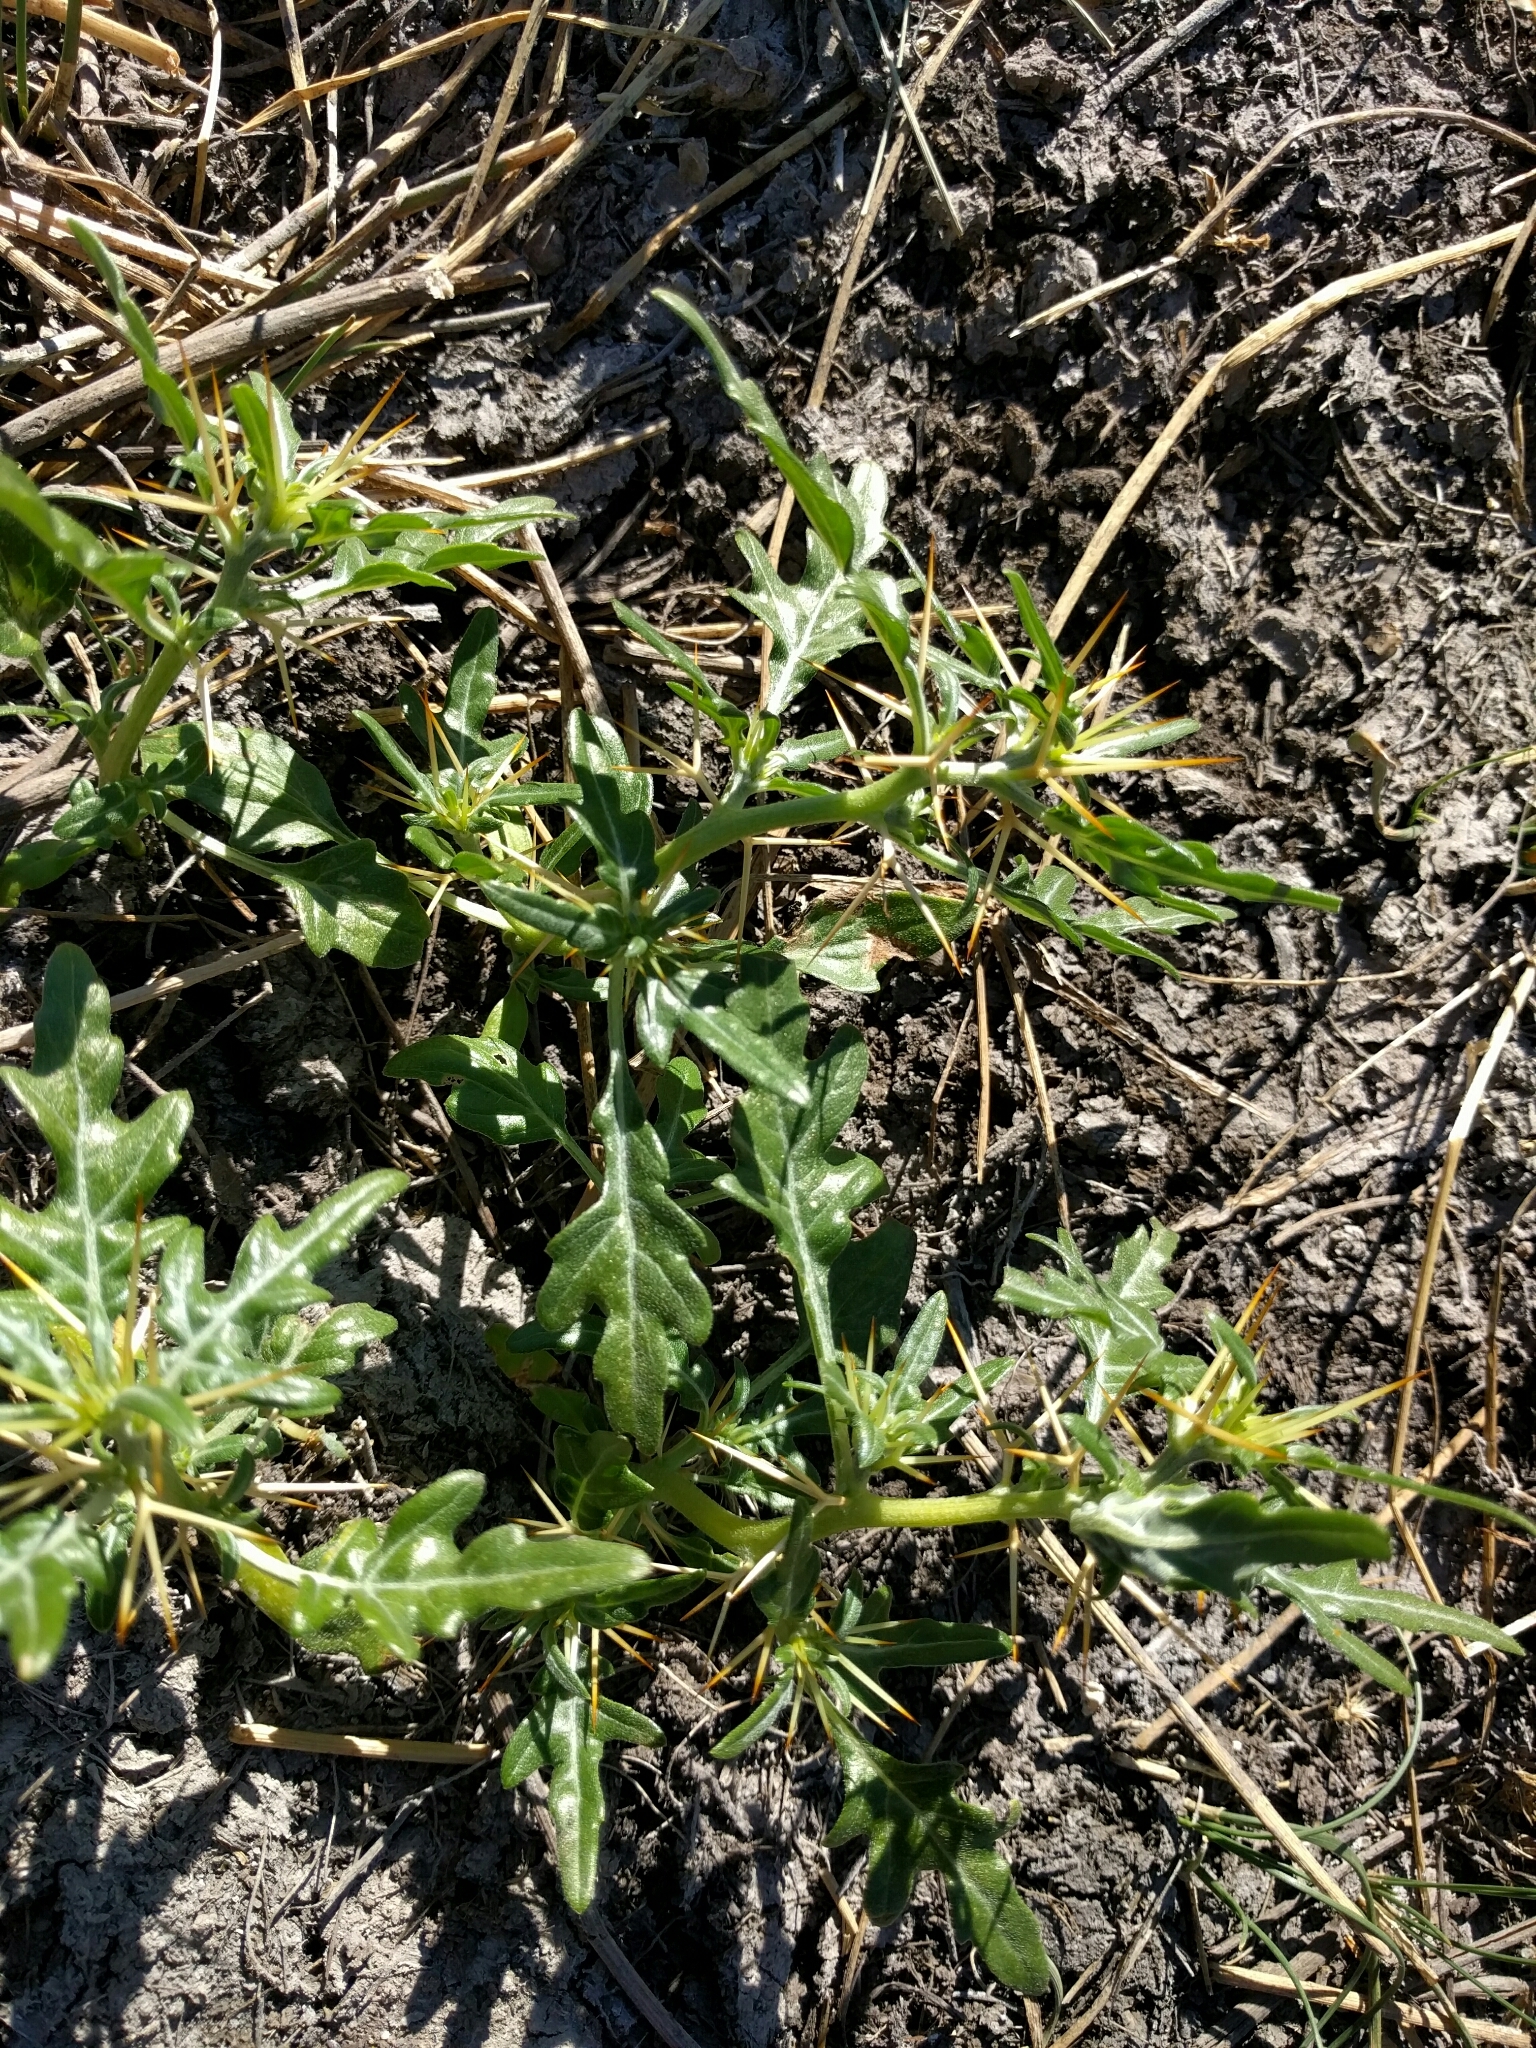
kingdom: Plantae
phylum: Tracheophyta
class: Magnoliopsida
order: Asterales
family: Asteraceae
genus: Xanthium
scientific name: Xanthium spinosum
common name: Spiny cocklebur
